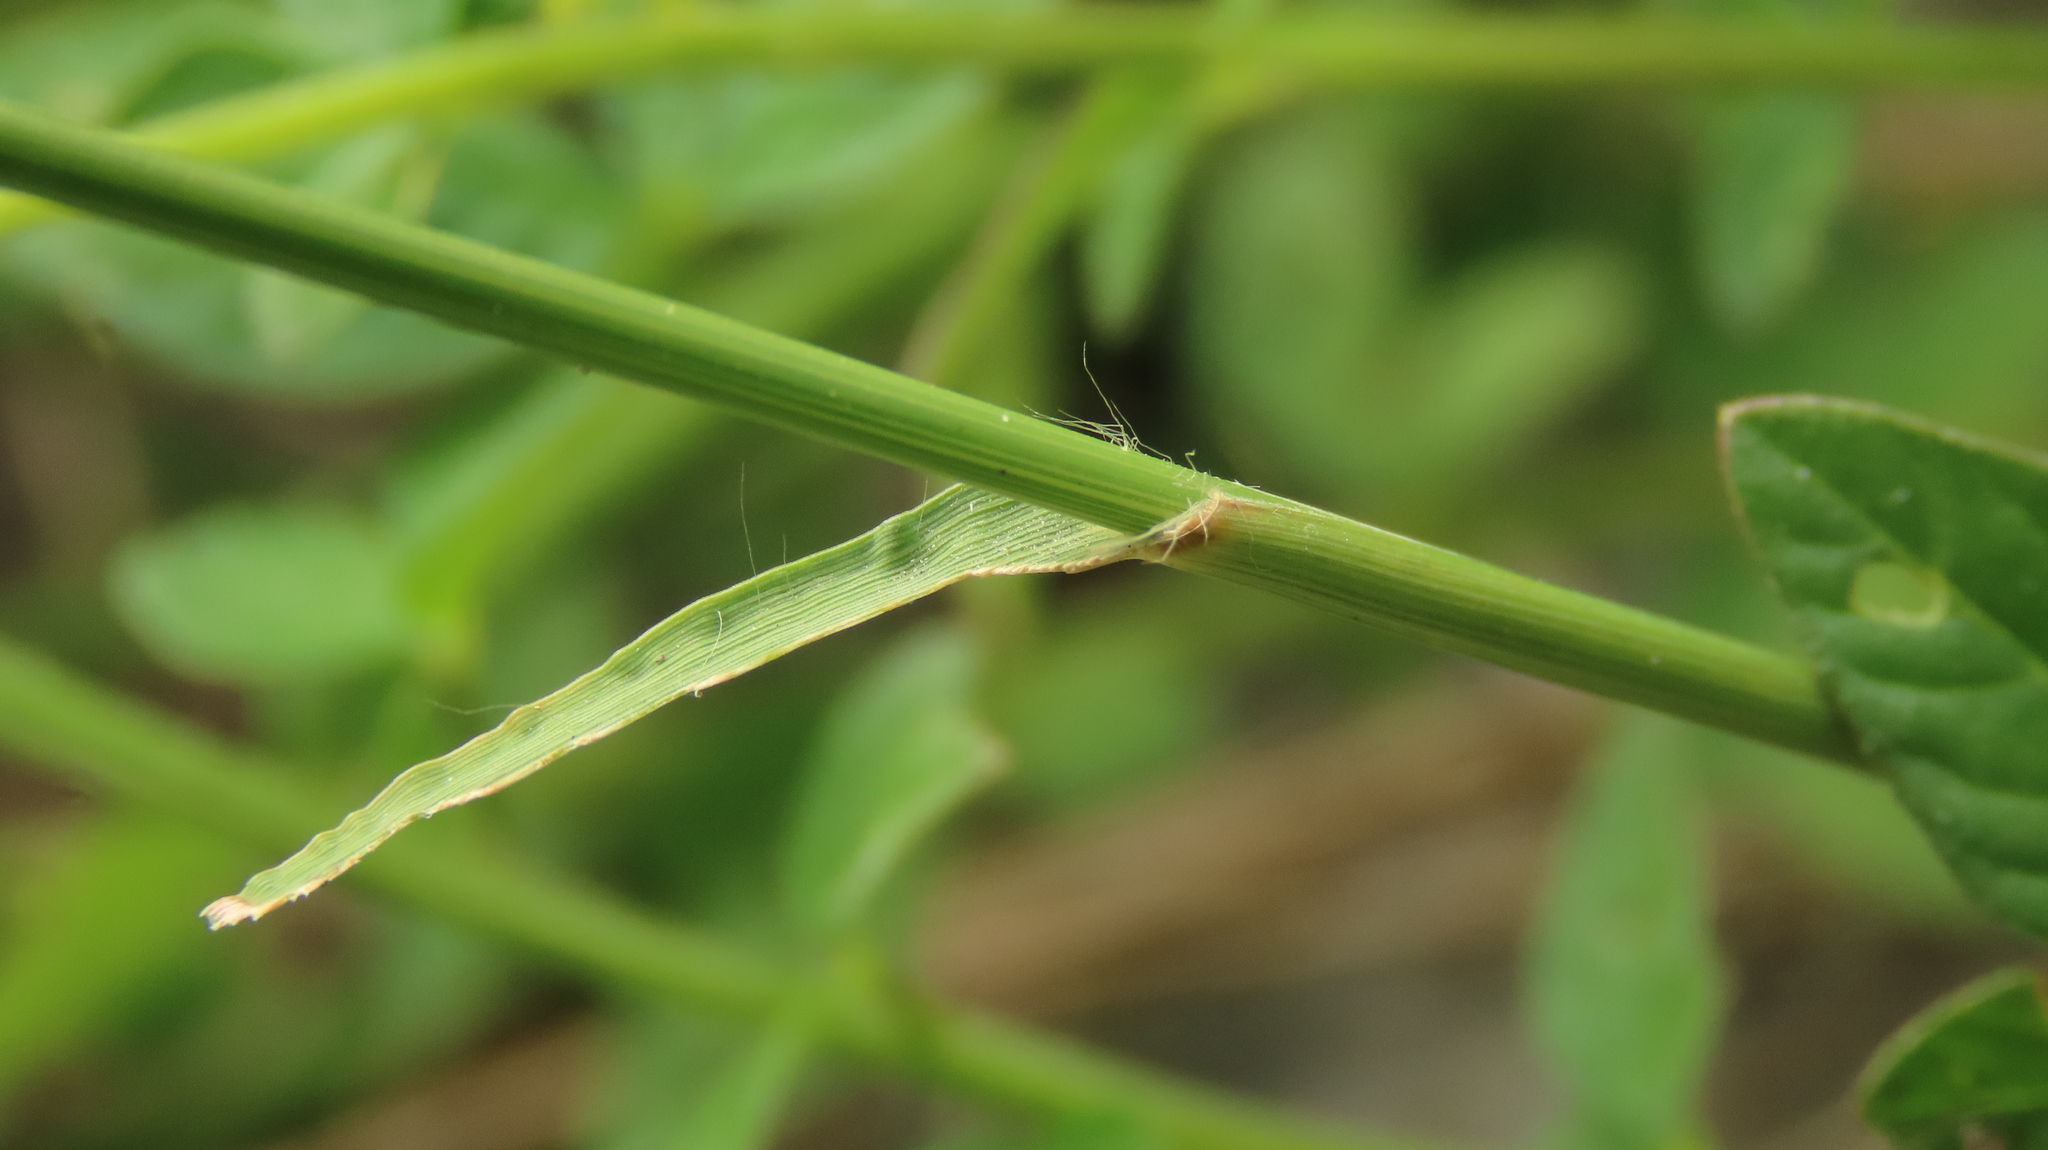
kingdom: Plantae
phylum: Tracheophyta
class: Liliopsida
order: Poales
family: Poaceae
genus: Eragrostis
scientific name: Eragrostis ciliaris
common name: Gophertail lovegrass
